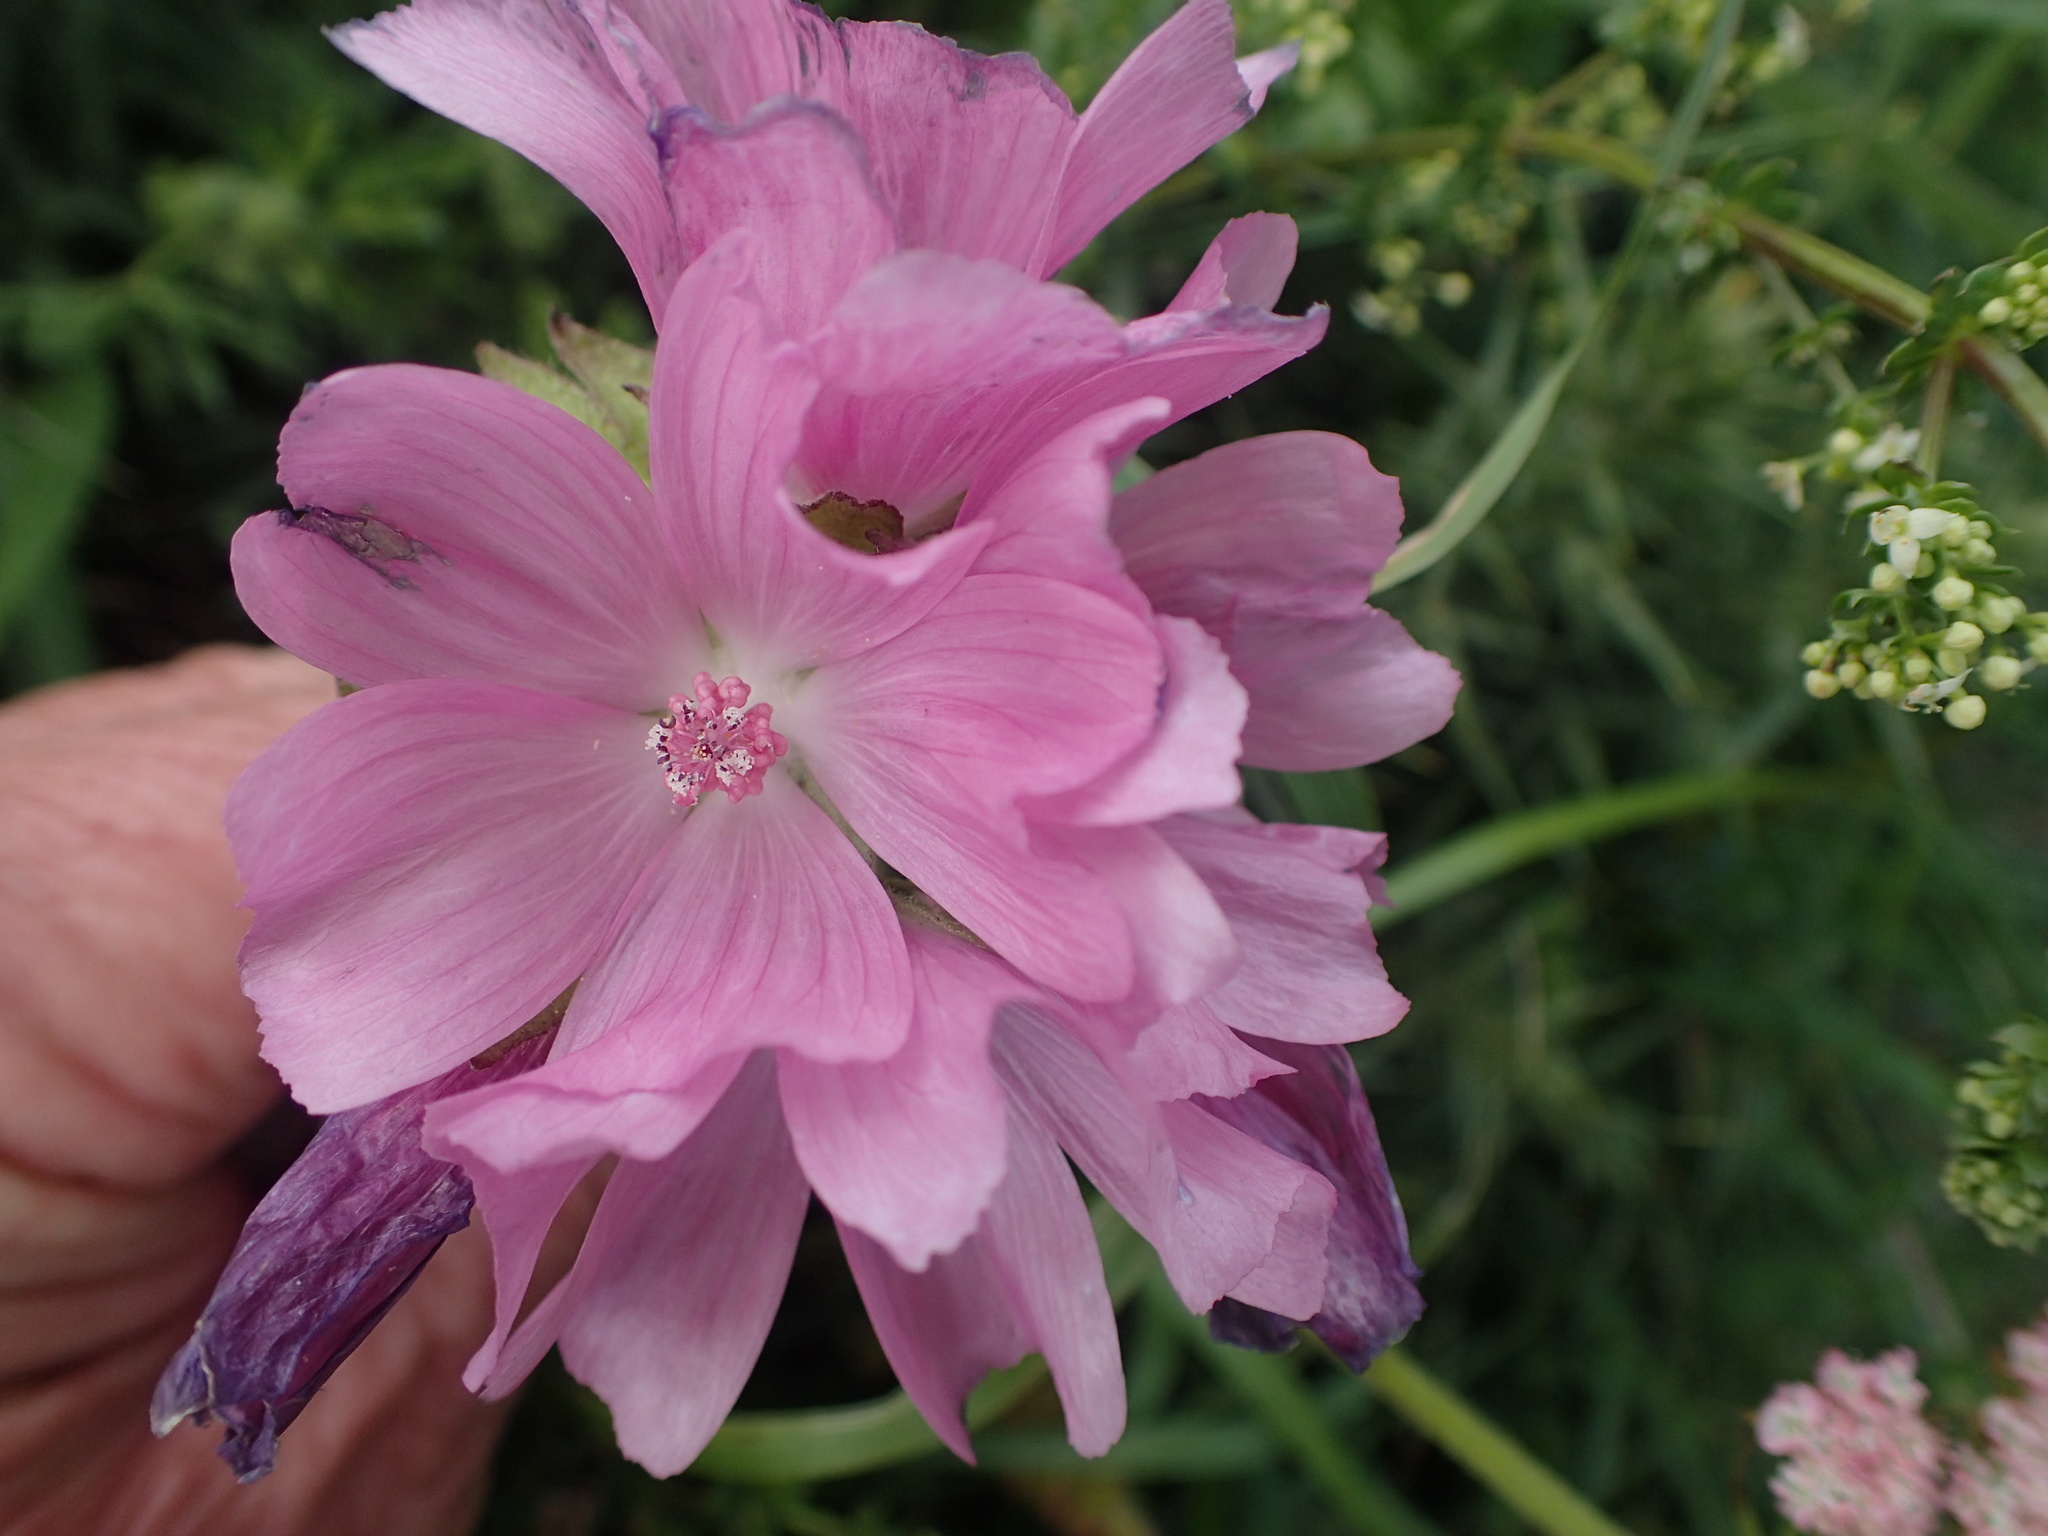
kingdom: Plantae
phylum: Tracheophyta
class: Magnoliopsida
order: Malvales
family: Malvaceae
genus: Malva
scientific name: Malva moschata
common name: Musk mallow
